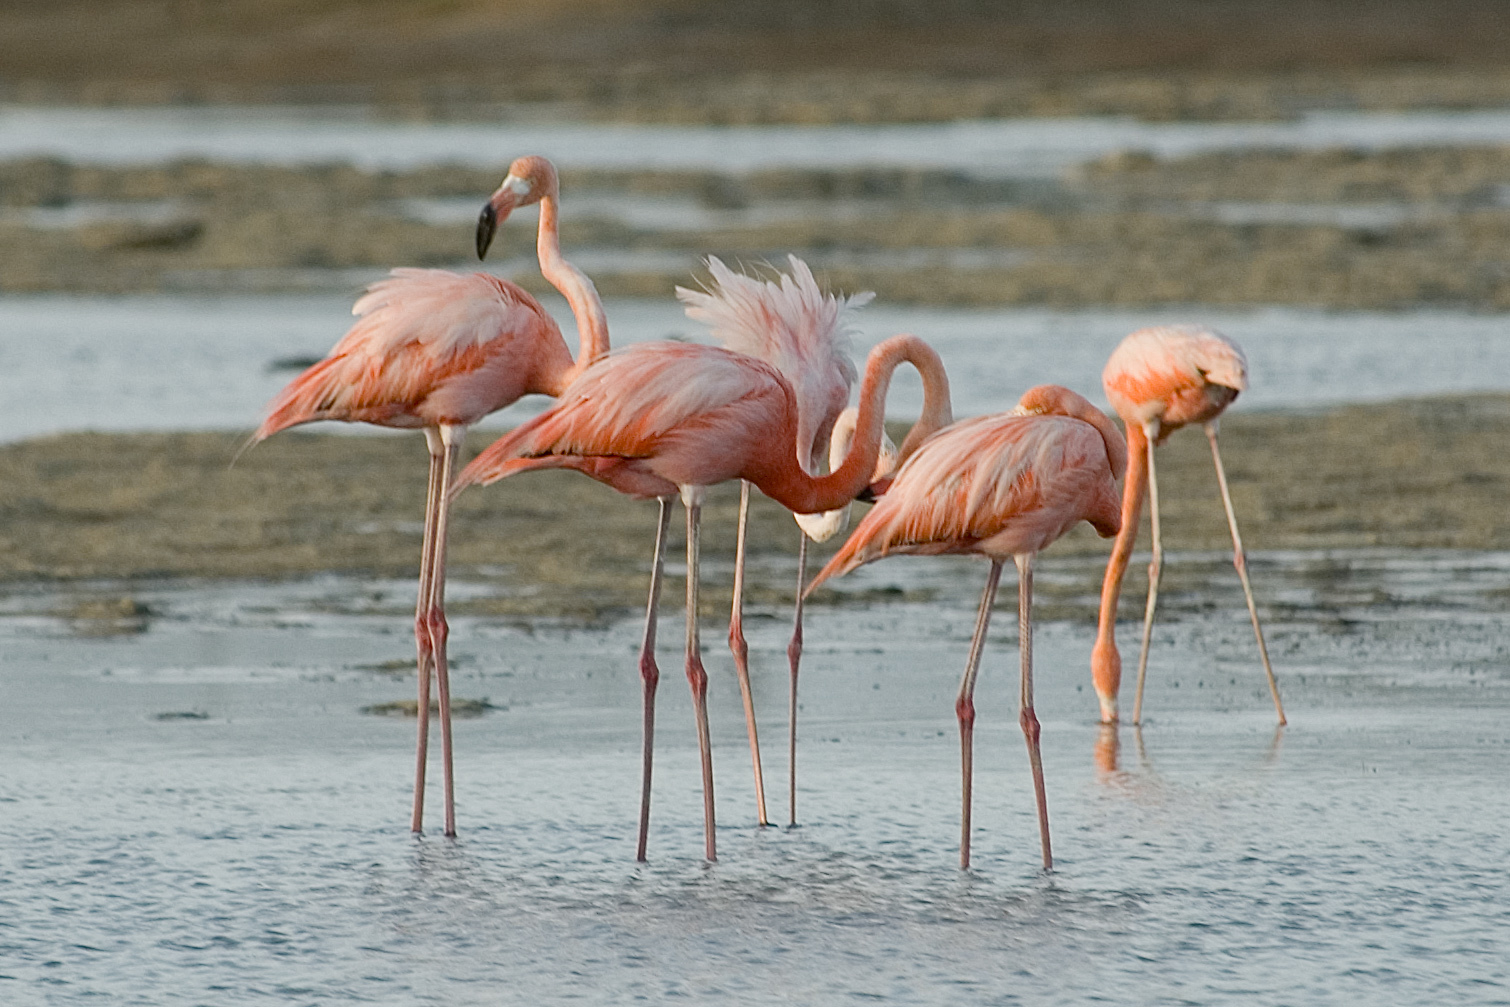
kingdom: Animalia
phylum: Chordata
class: Aves
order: Phoenicopteriformes
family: Phoenicopteridae
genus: Phoenicopterus
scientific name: Phoenicopterus ruber
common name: American flamingo
